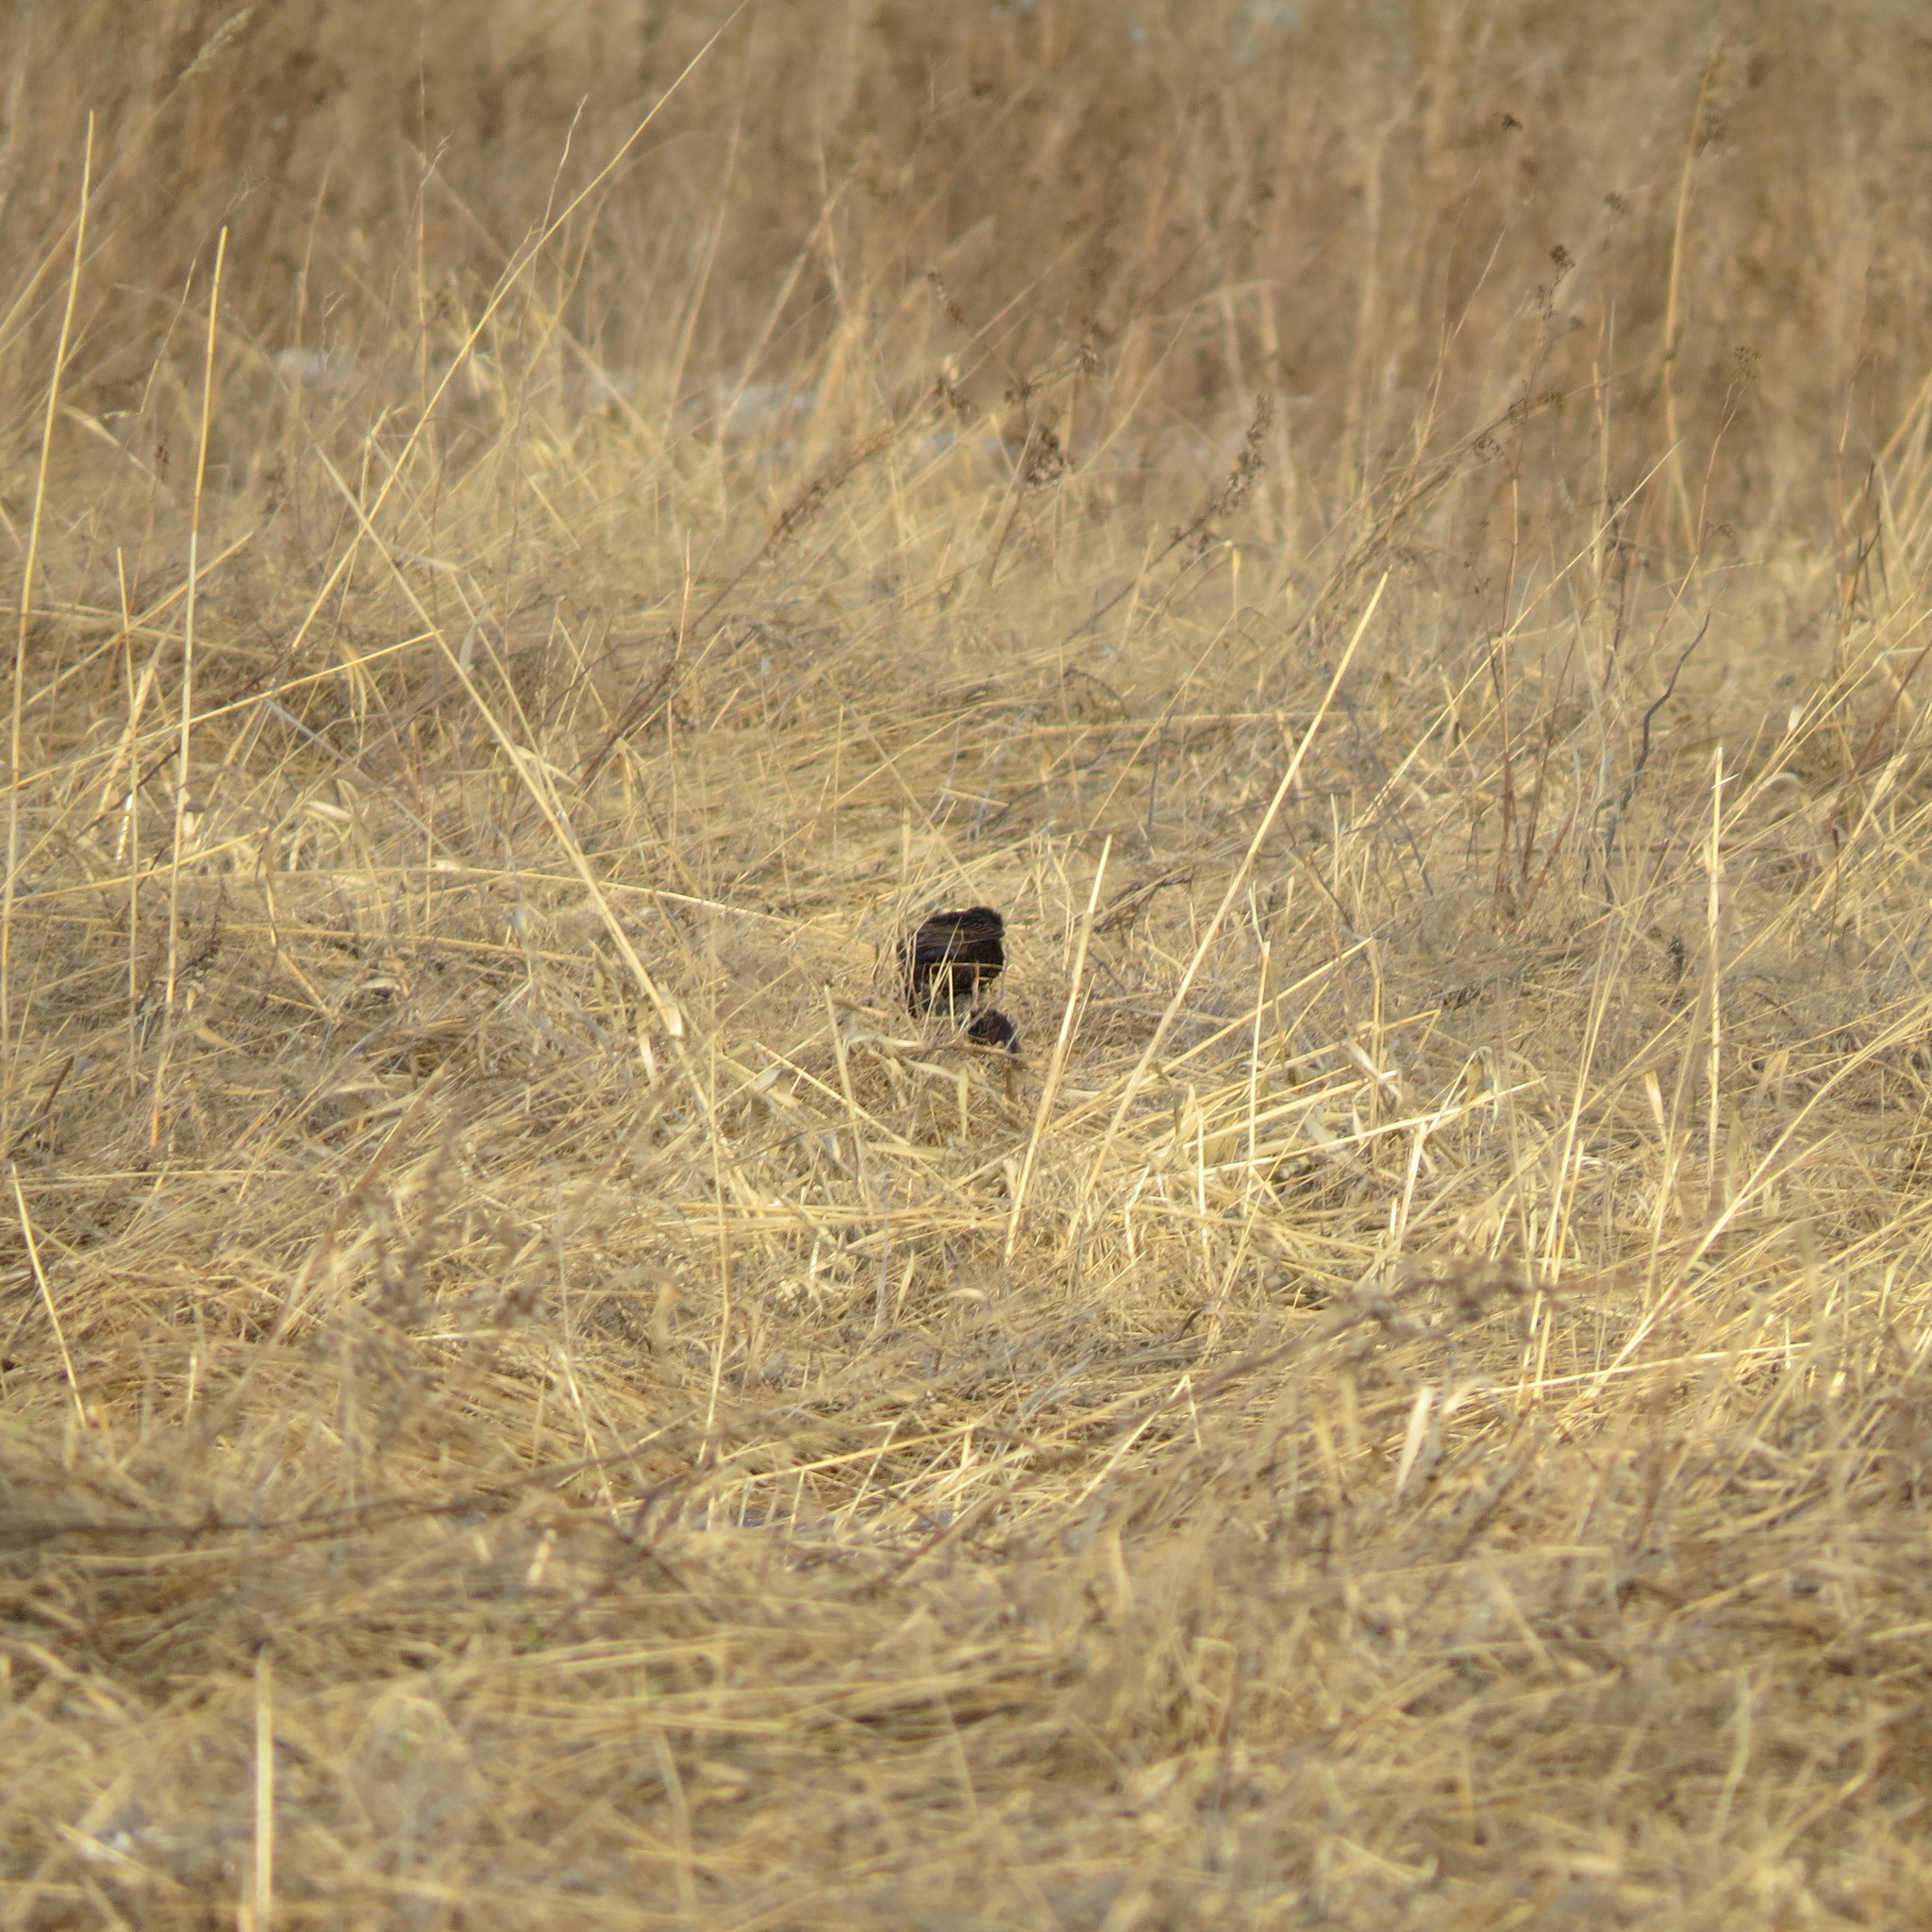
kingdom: Animalia
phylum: Chordata
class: Aves
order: Passeriformes
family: Sturnidae
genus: Sturnus
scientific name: Sturnus vulgaris
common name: Common starling
